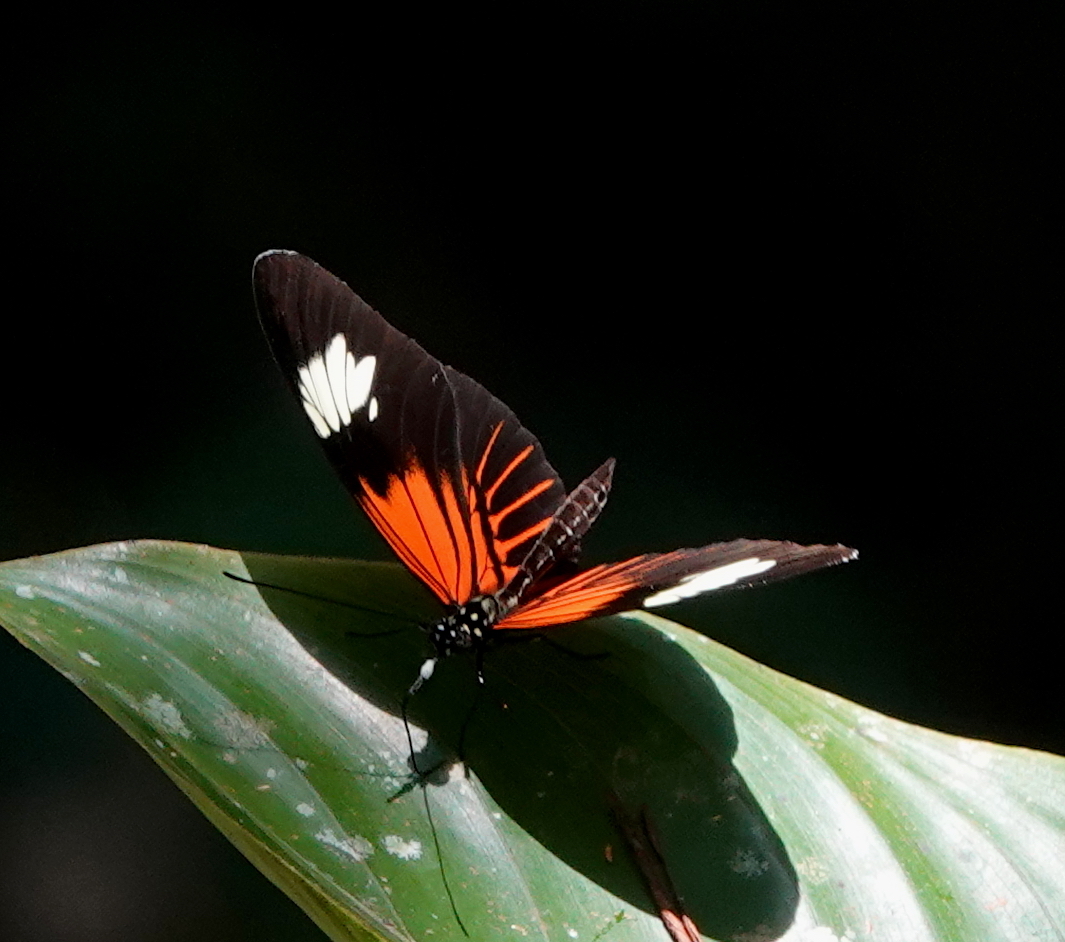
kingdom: Animalia
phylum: Arthropoda
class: Insecta
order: Lepidoptera
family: Nymphalidae
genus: Heliconius
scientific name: Heliconius elevatus
